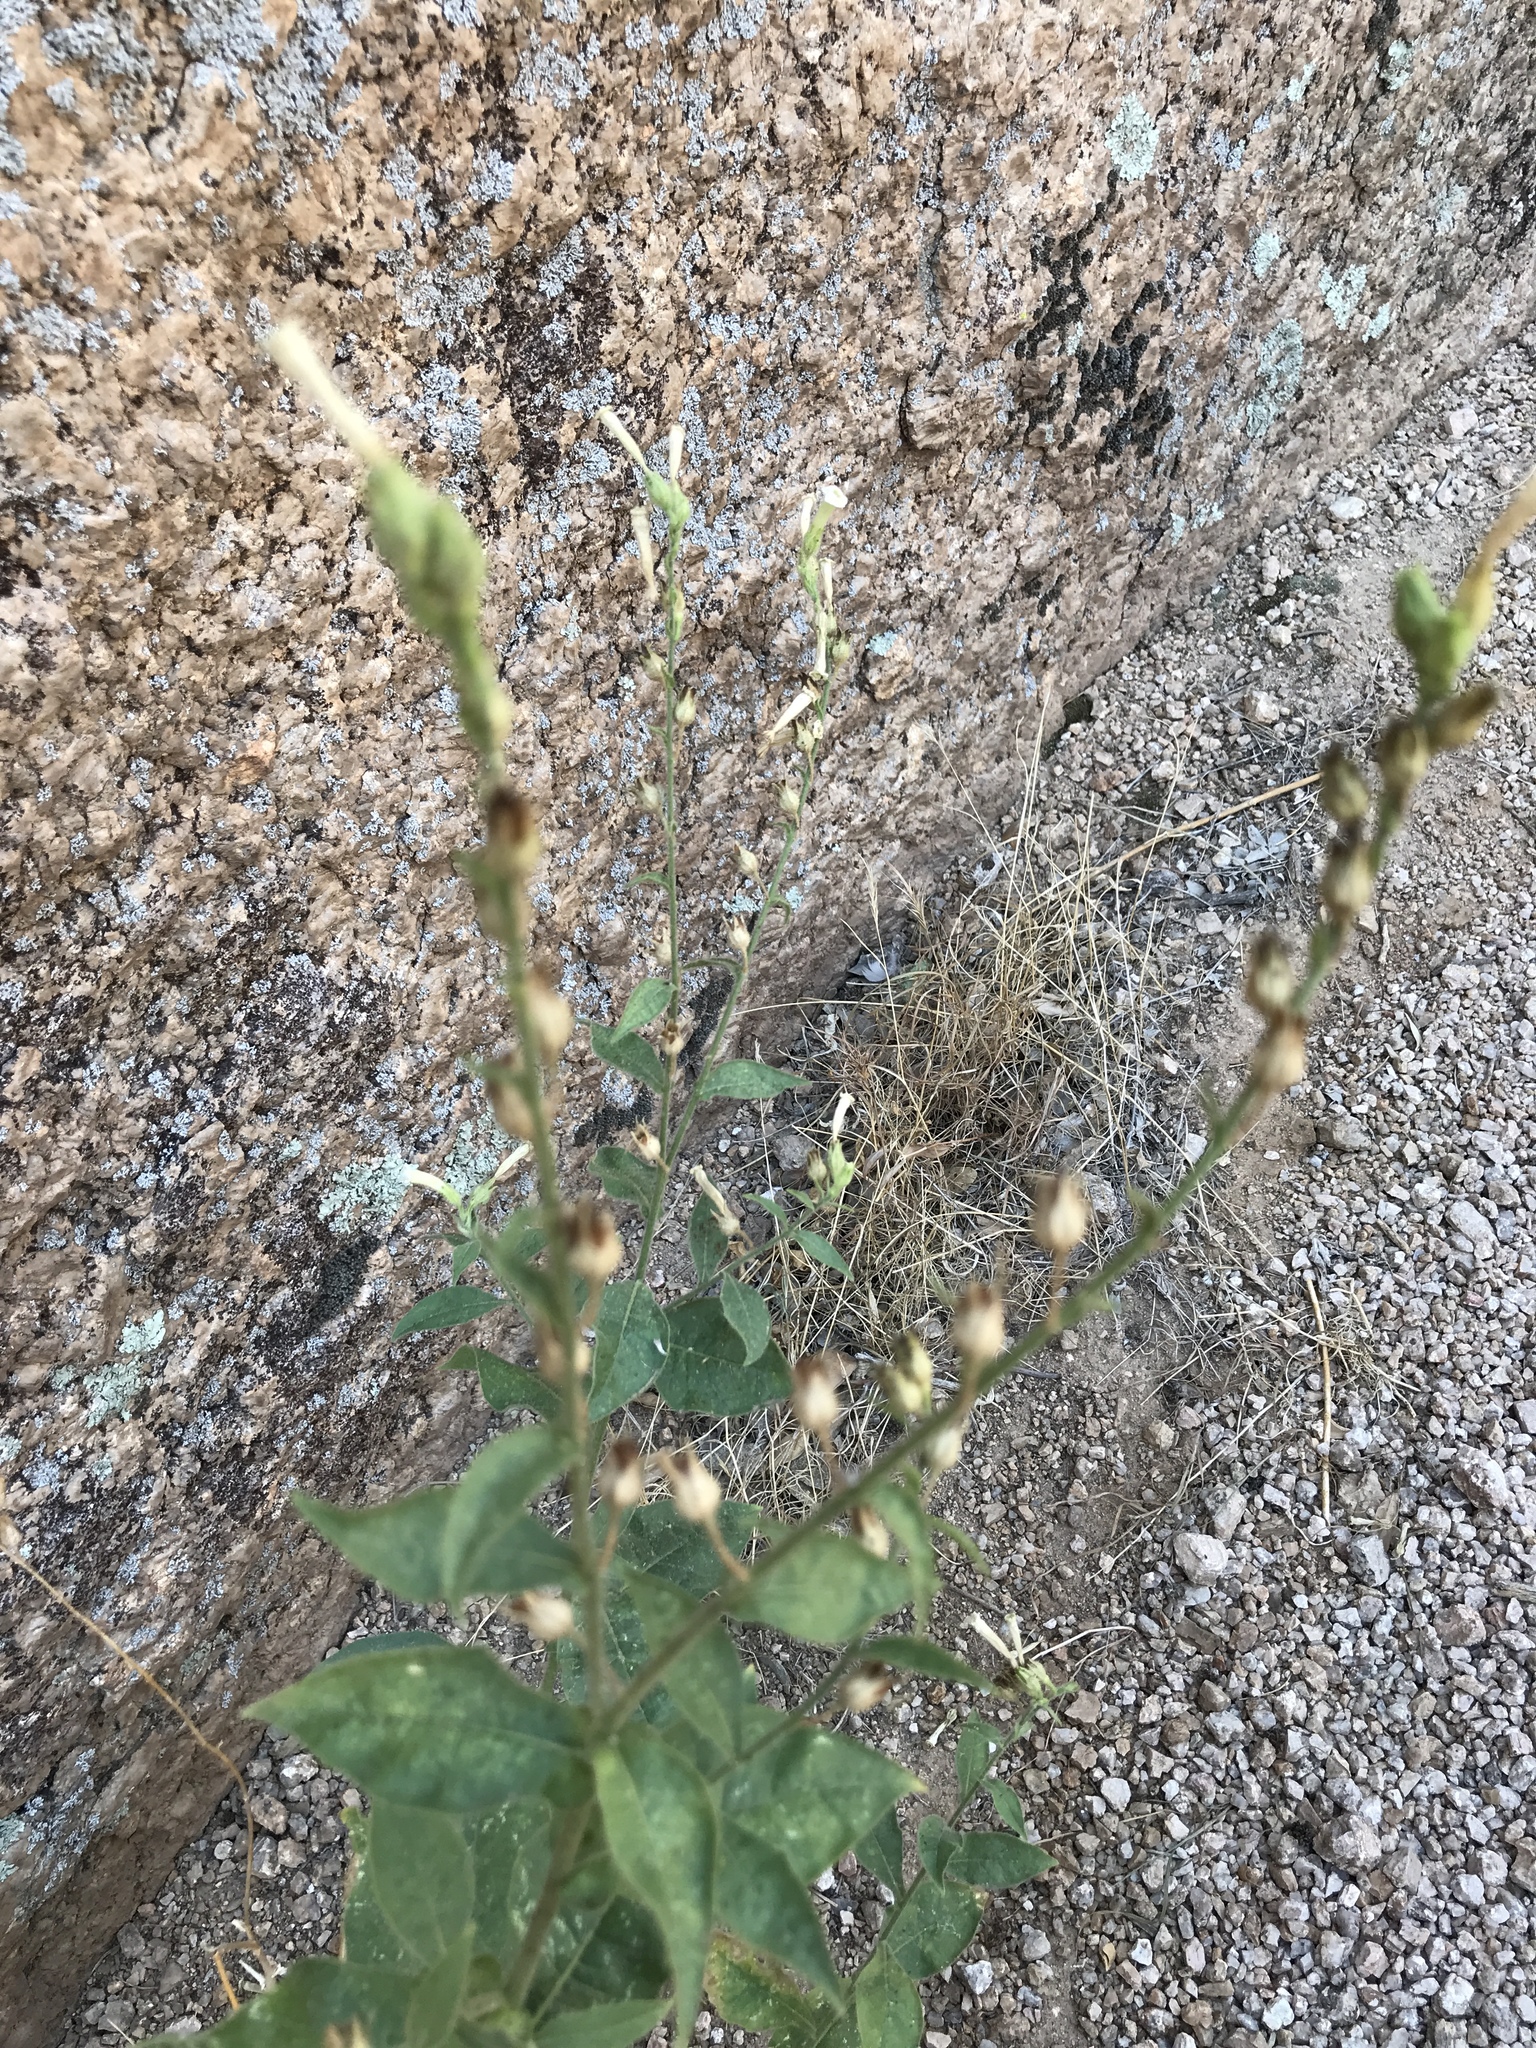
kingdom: Plantae
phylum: Tracheophyta
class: Magnoliopsida
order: Solanales
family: Solanaceae
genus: Nicotiana
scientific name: Nicotiana obtusifolia
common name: Desert tobacco
